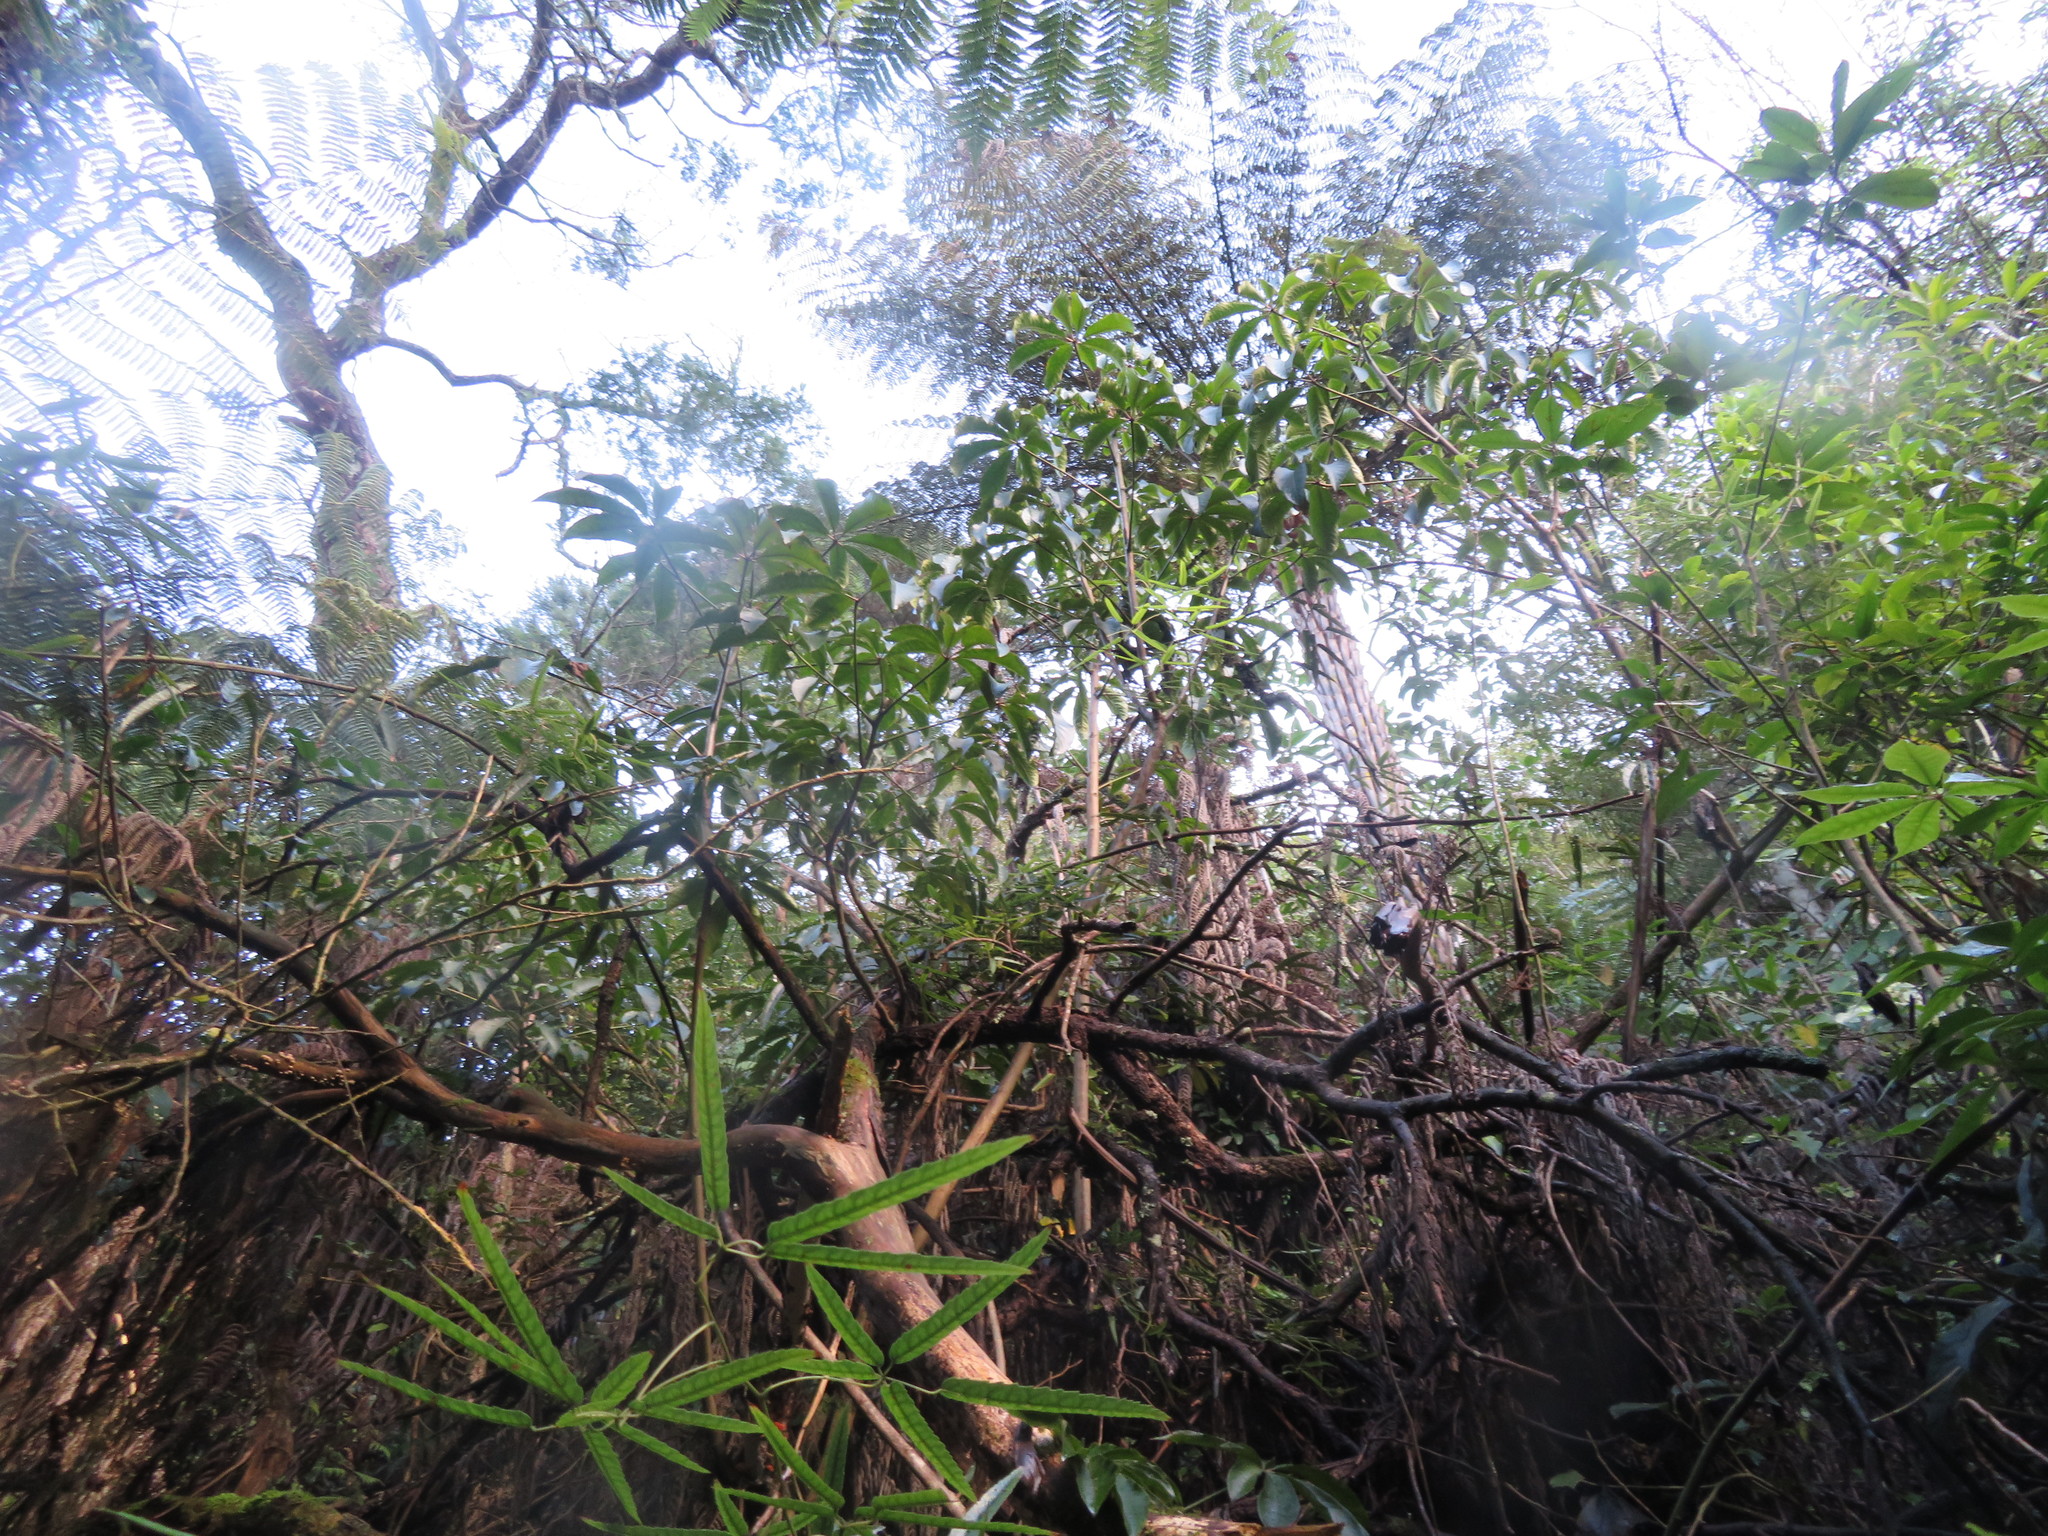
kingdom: Plantae
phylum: Tracheophyta
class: Magnoliopsida
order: Apiales
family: Araliaceae
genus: Schefflera
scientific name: Schefflera digitata
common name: Pate
